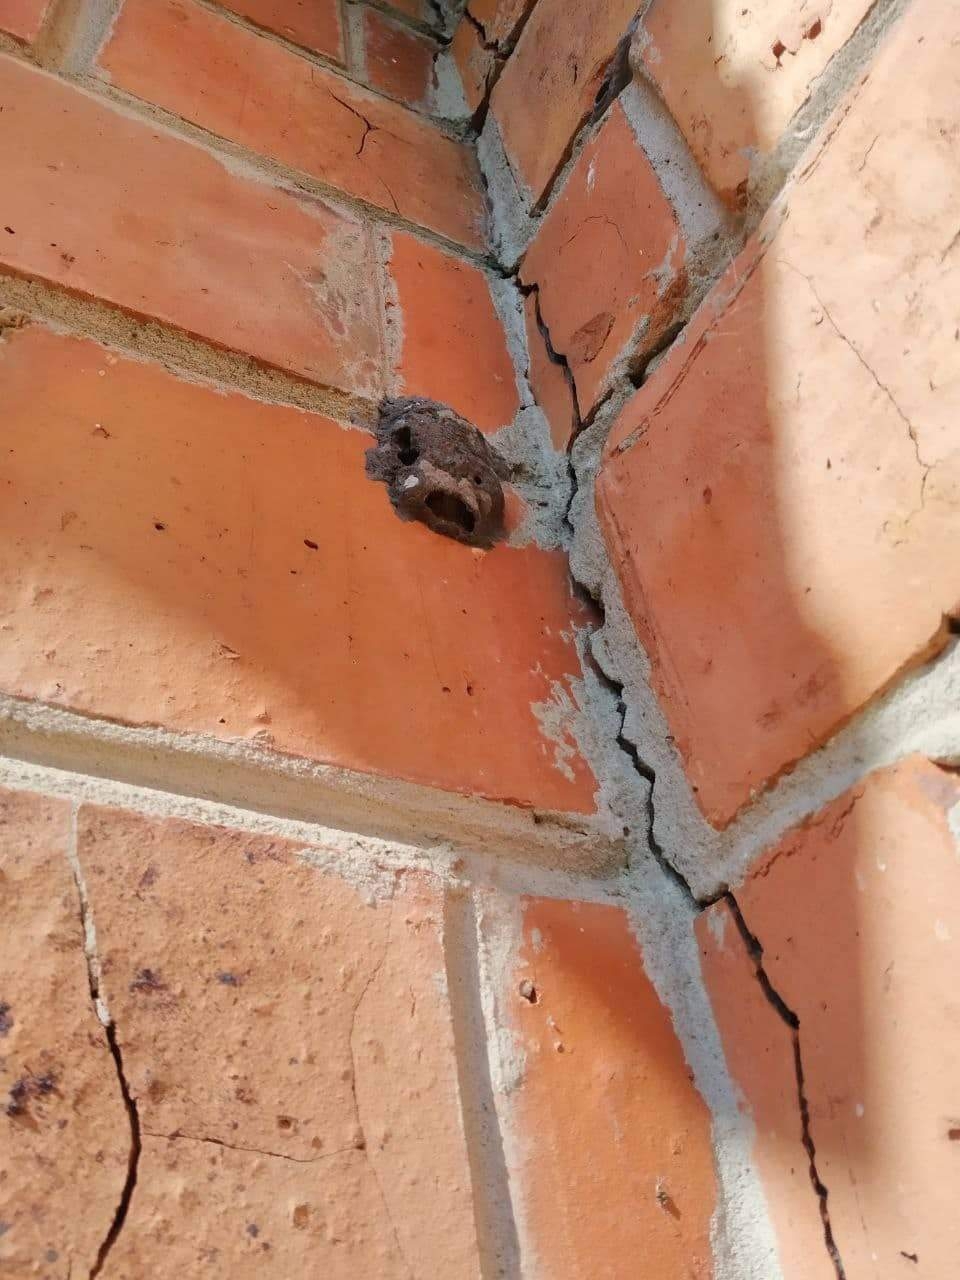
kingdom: Animalia
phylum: Arthropoda
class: Insecta
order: Hymenoptera
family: Sphecidae
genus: Sceliphron
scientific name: Sceliphron destillatorium
